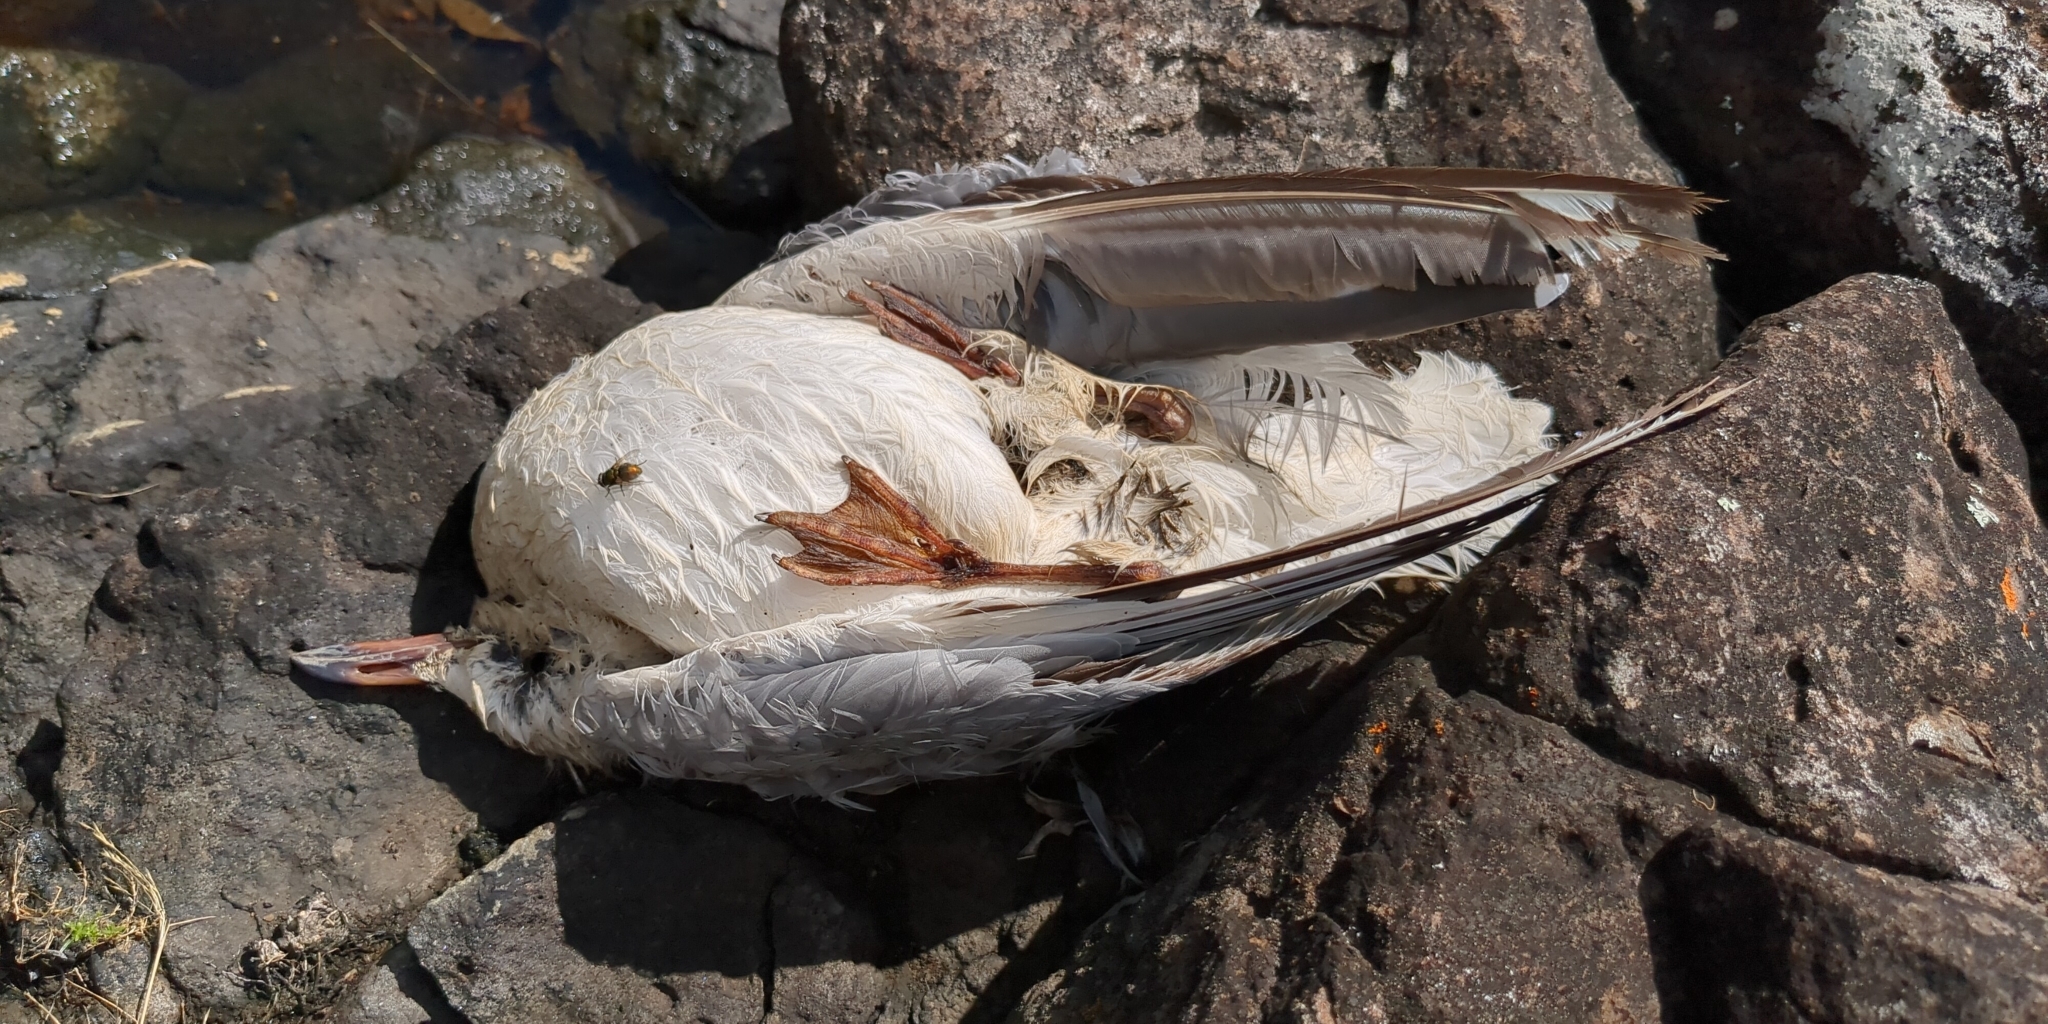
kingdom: Animalia
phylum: Chordata
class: Aves
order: Charadriiformes
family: Laridae
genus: Chroicocephalus
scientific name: Chroicocephalus novaehollandiae
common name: Silver gull
